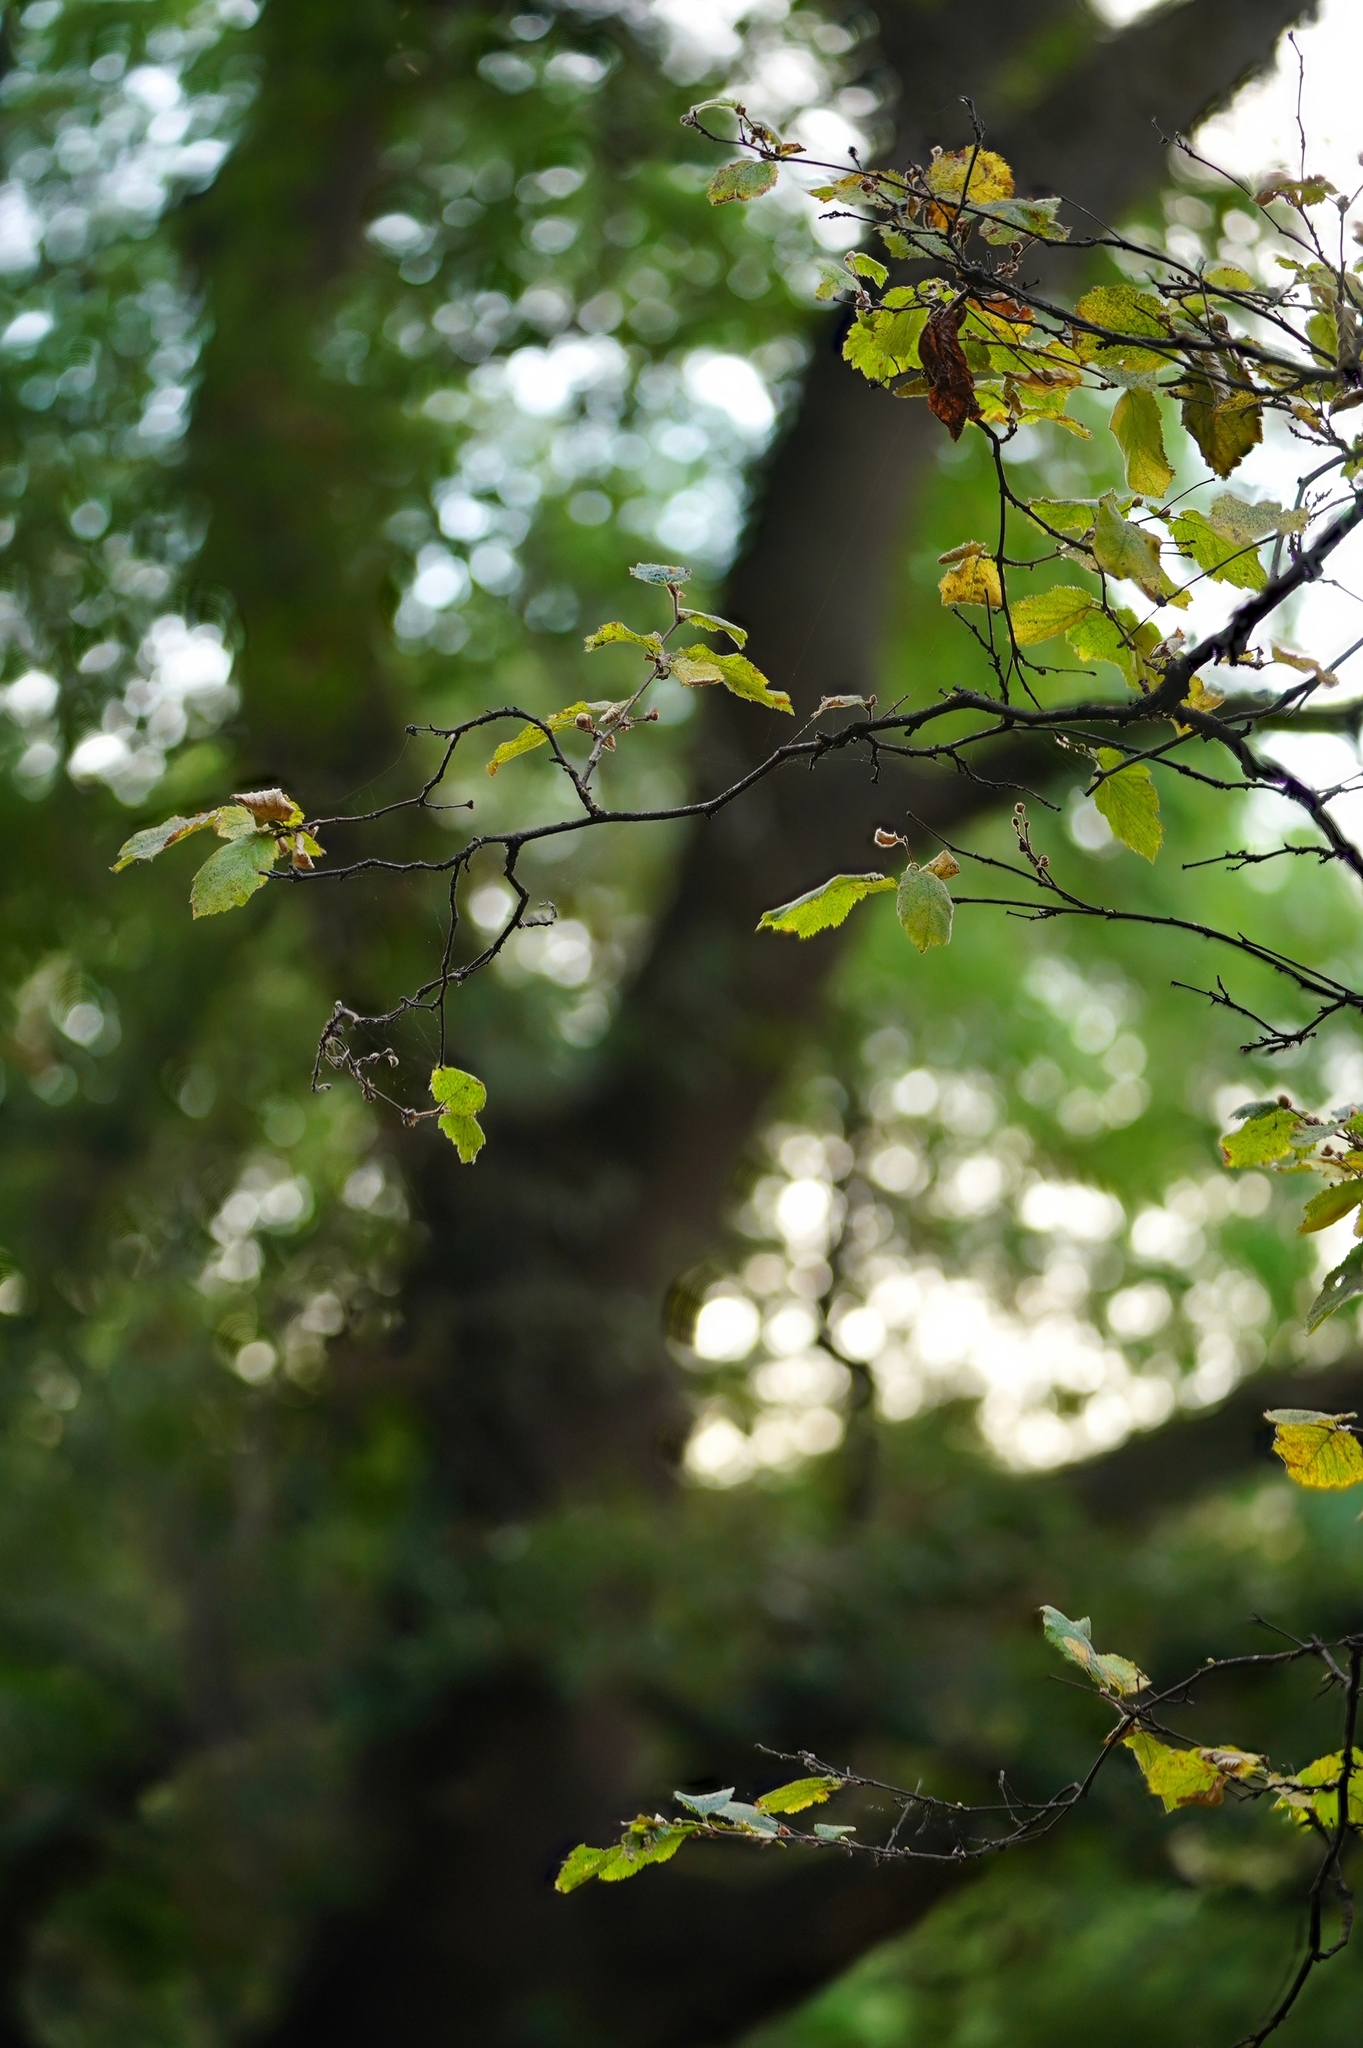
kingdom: Plantae
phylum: Tracheophyta
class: Magnoliopsida
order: Fagales
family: Betulaceae
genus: Corylus
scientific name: Corylus cornuta
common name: Beaked hazel
